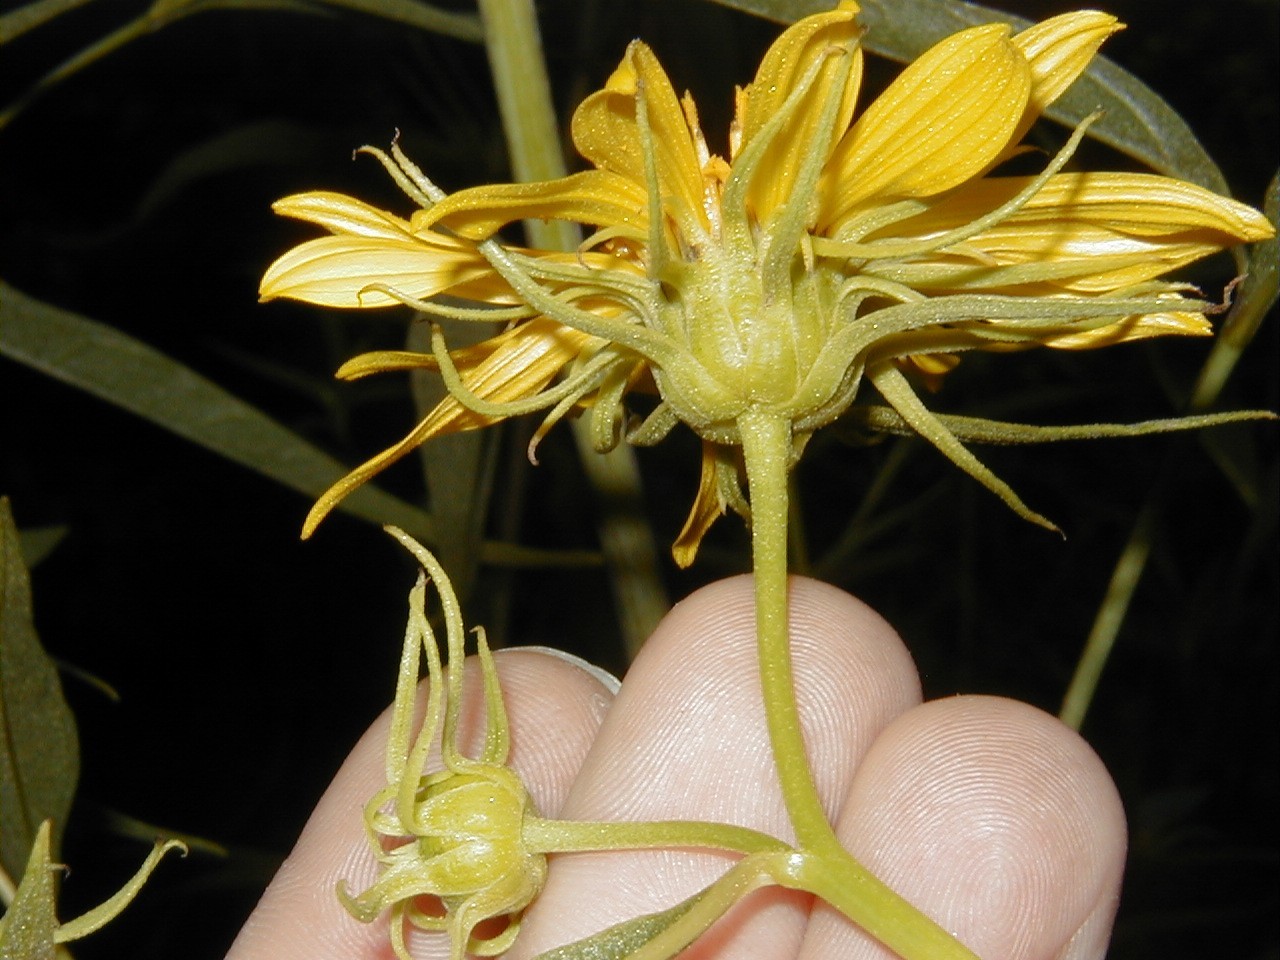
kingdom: Plantae
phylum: Tracheophyta
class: Magnoliopsida
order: Asterales
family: Asteraceae
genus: Helianthus
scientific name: Helianthus californicus
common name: California sunflower
